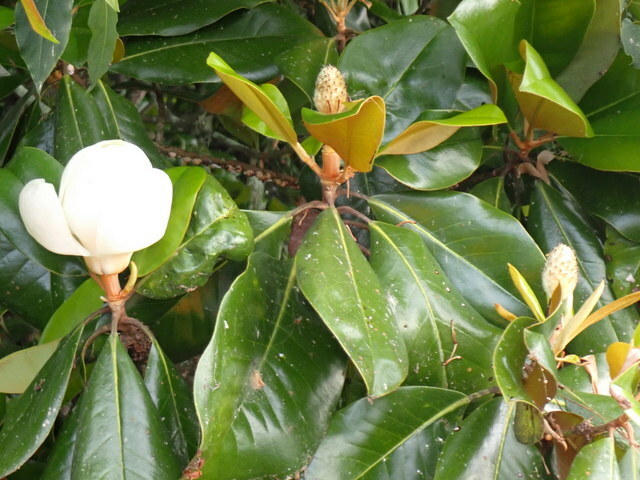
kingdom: Plantae
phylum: Tracheophyta
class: Magnoliopsida
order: Magnoliales
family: Magnoliaceae
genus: Magnolia
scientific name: Magnolia grandiflora
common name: Southern magnolia
